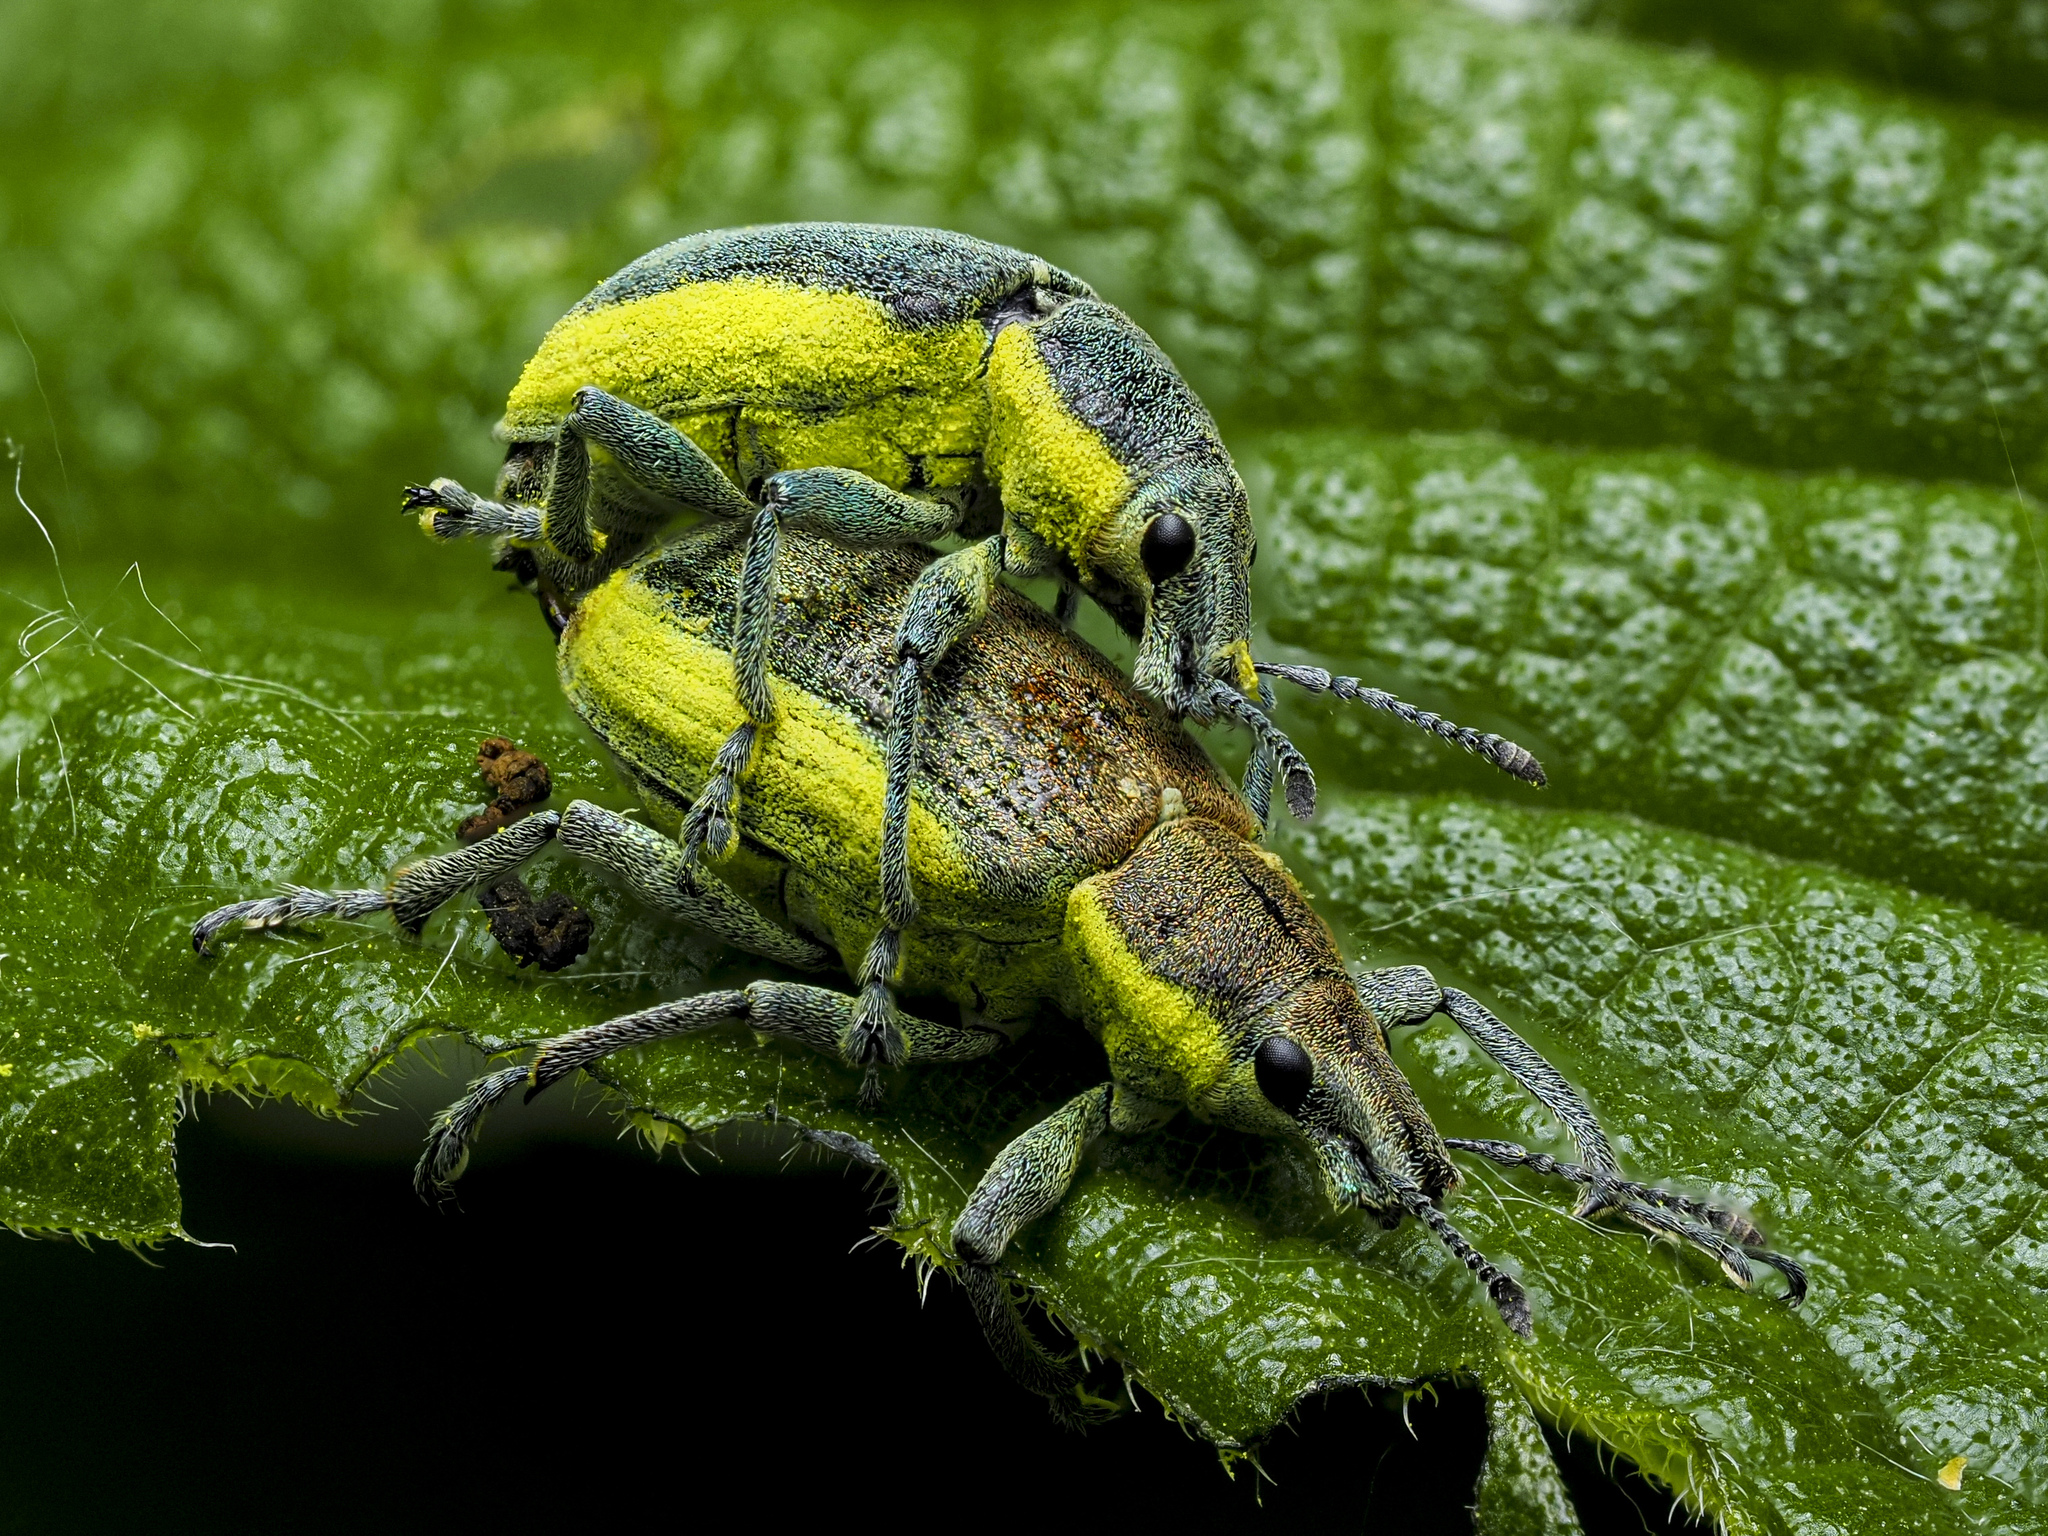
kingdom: Animalia
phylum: Arthropoda
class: Insecta
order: Coleoptera
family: Curculionidae
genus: Chlorophanus
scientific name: Chlorophanus viridis
